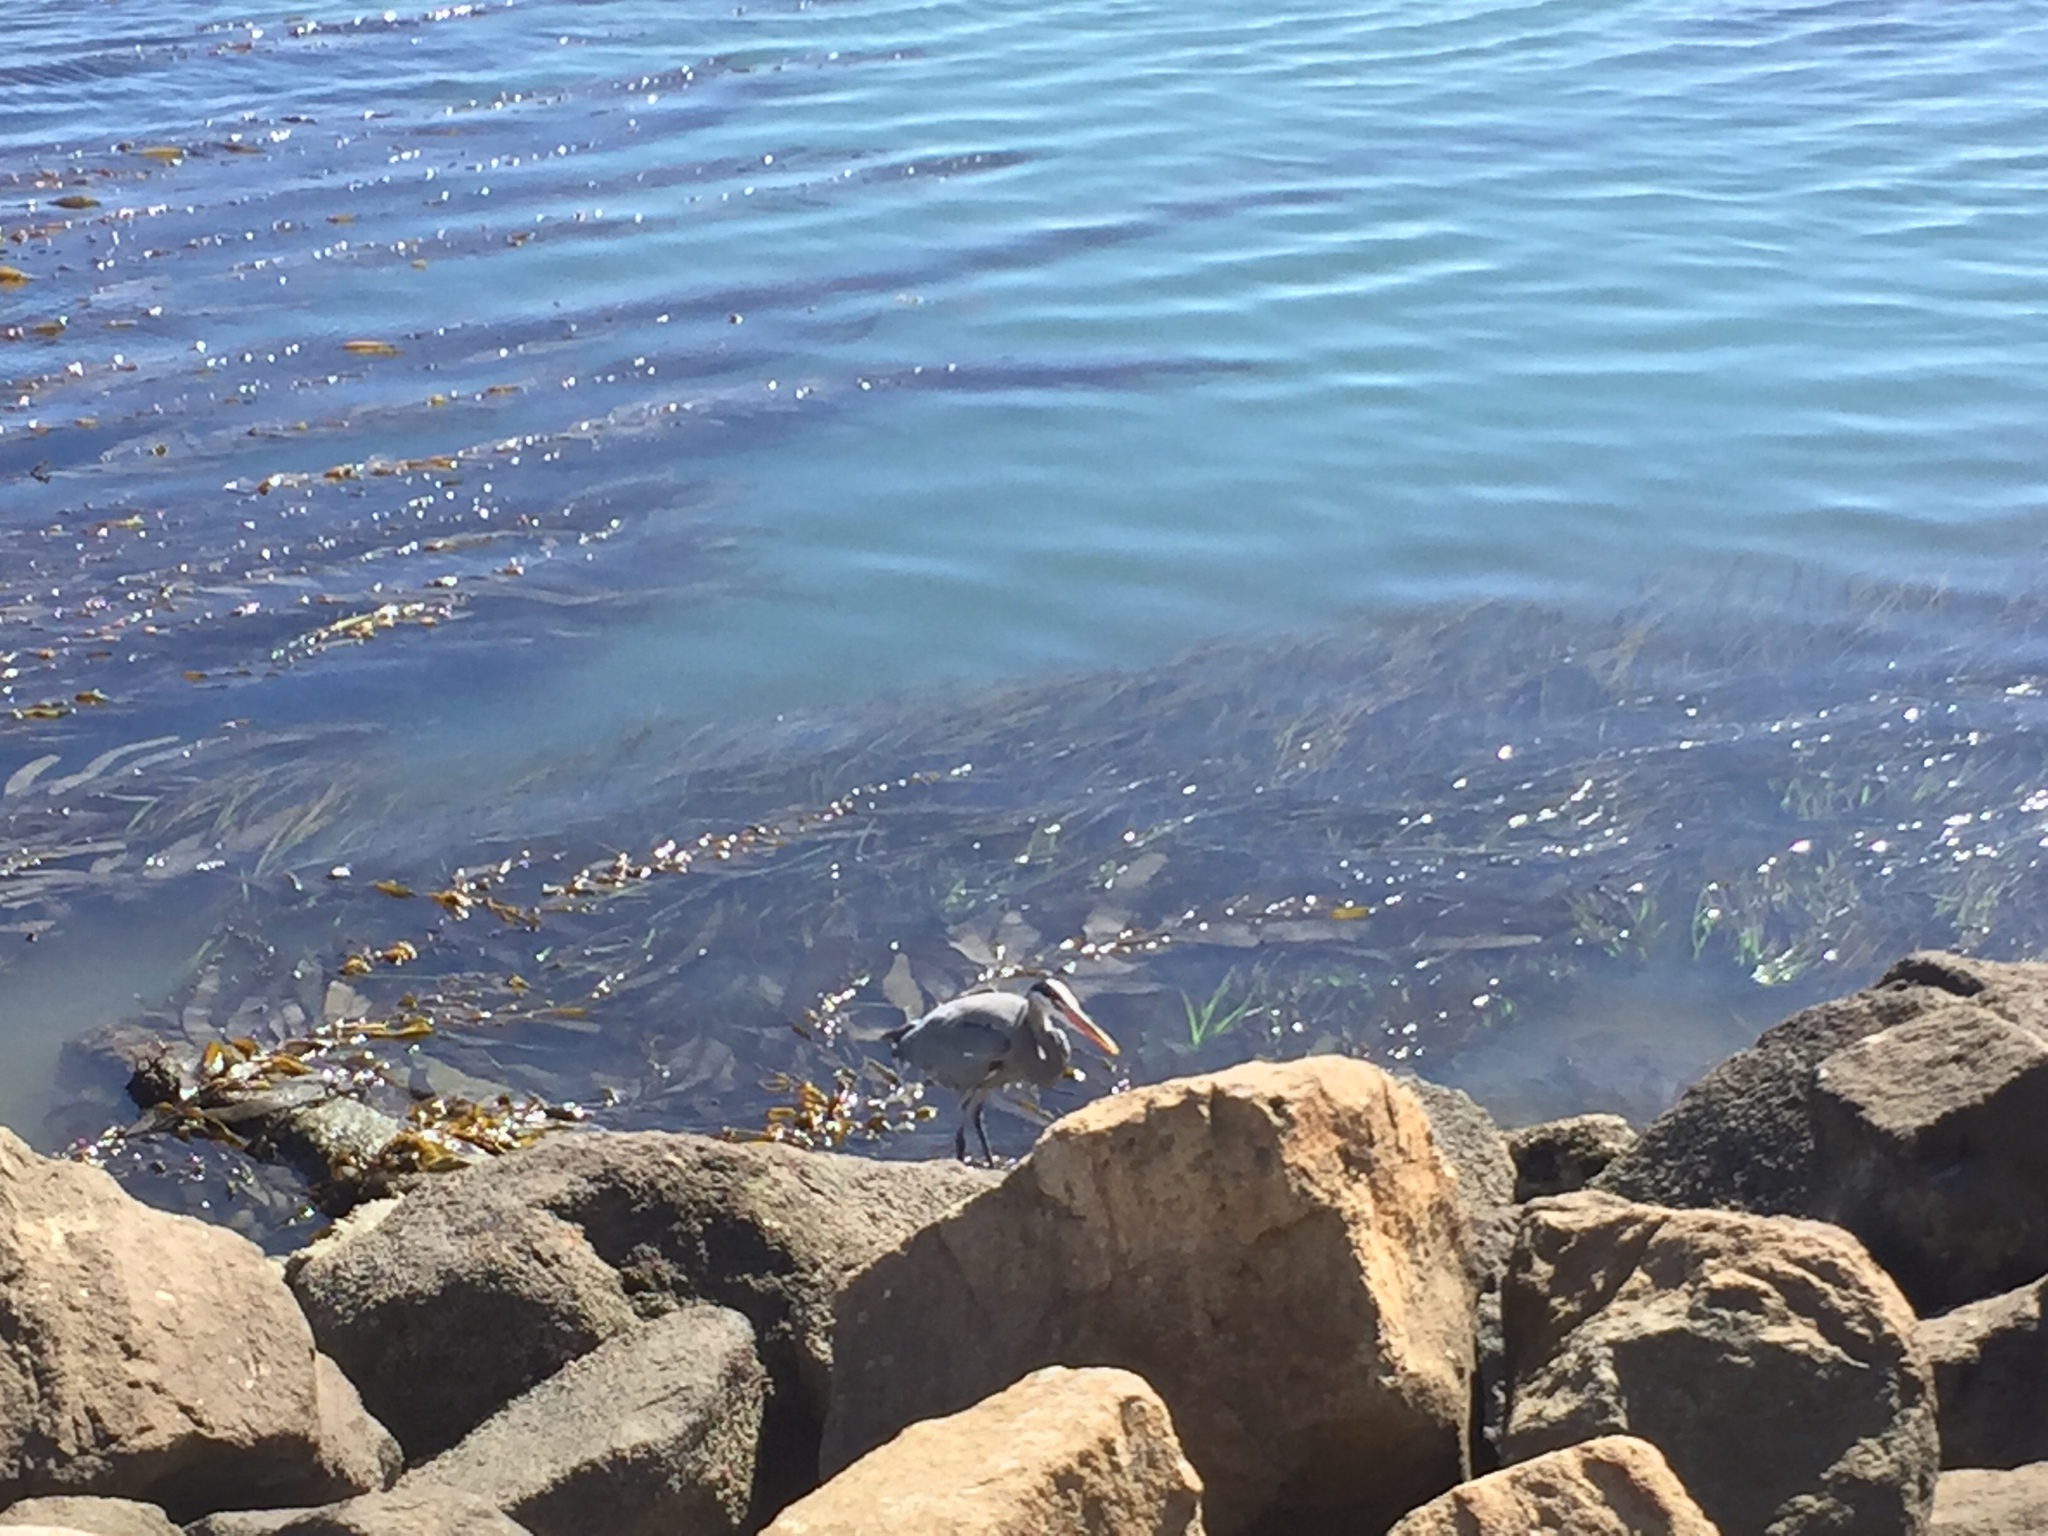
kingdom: Animalia
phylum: Chordata
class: Aves
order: Pelecaniformes
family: Ardeidae
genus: Ardea
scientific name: Ardea herodias
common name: Great blue heron
